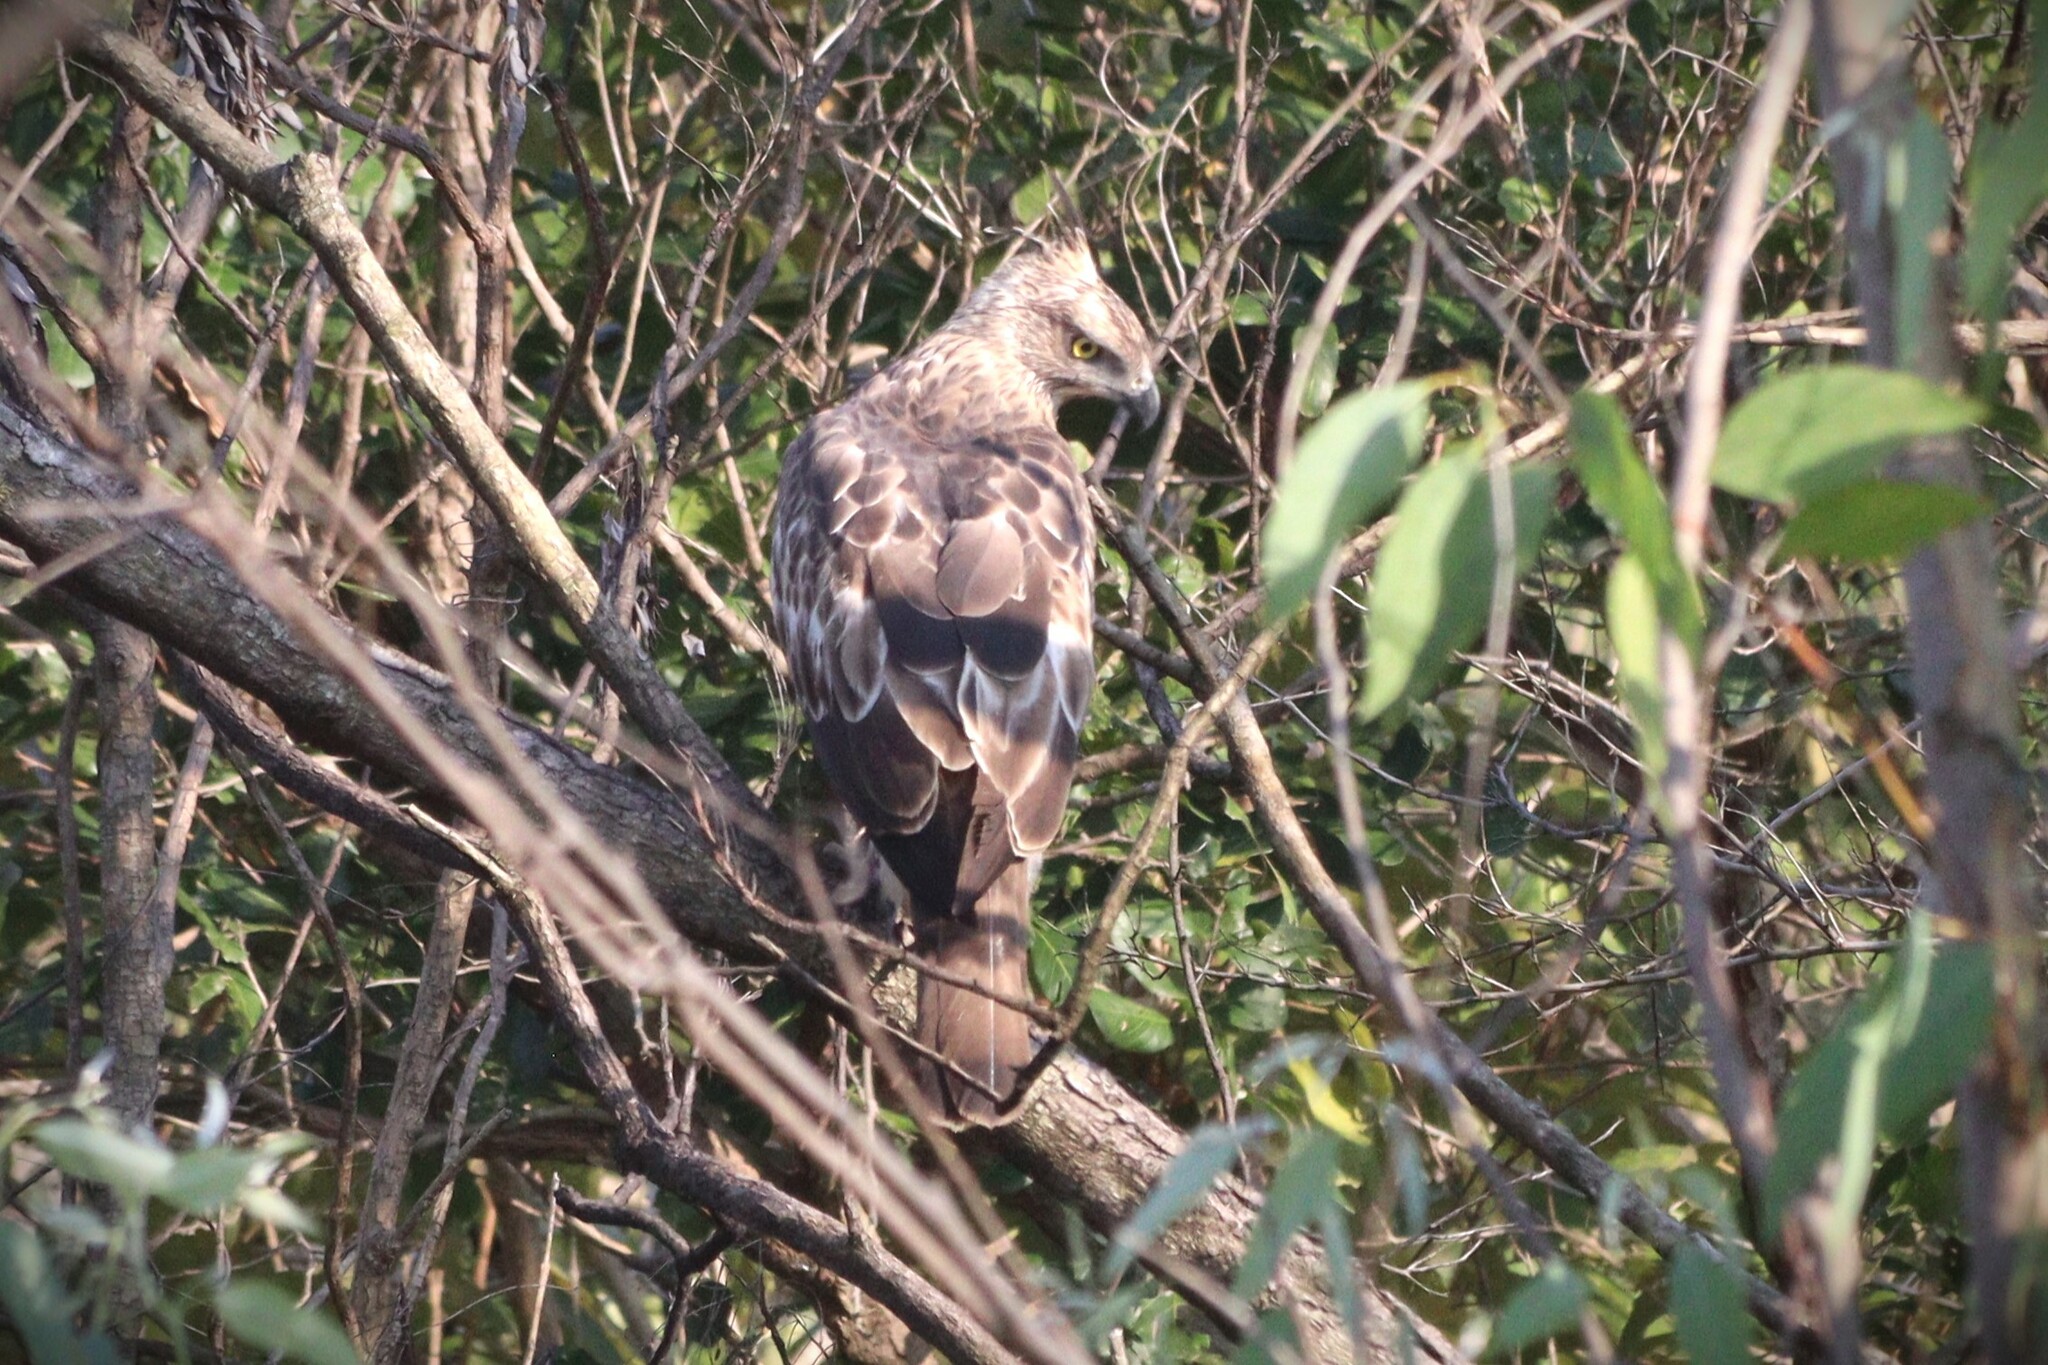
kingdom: Animalia
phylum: Chordata
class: Aves
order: Accipitriformes
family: Accipitridae
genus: Nisaetus
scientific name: Nisaetus cirrhatus
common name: Changeable hawk-eagle
